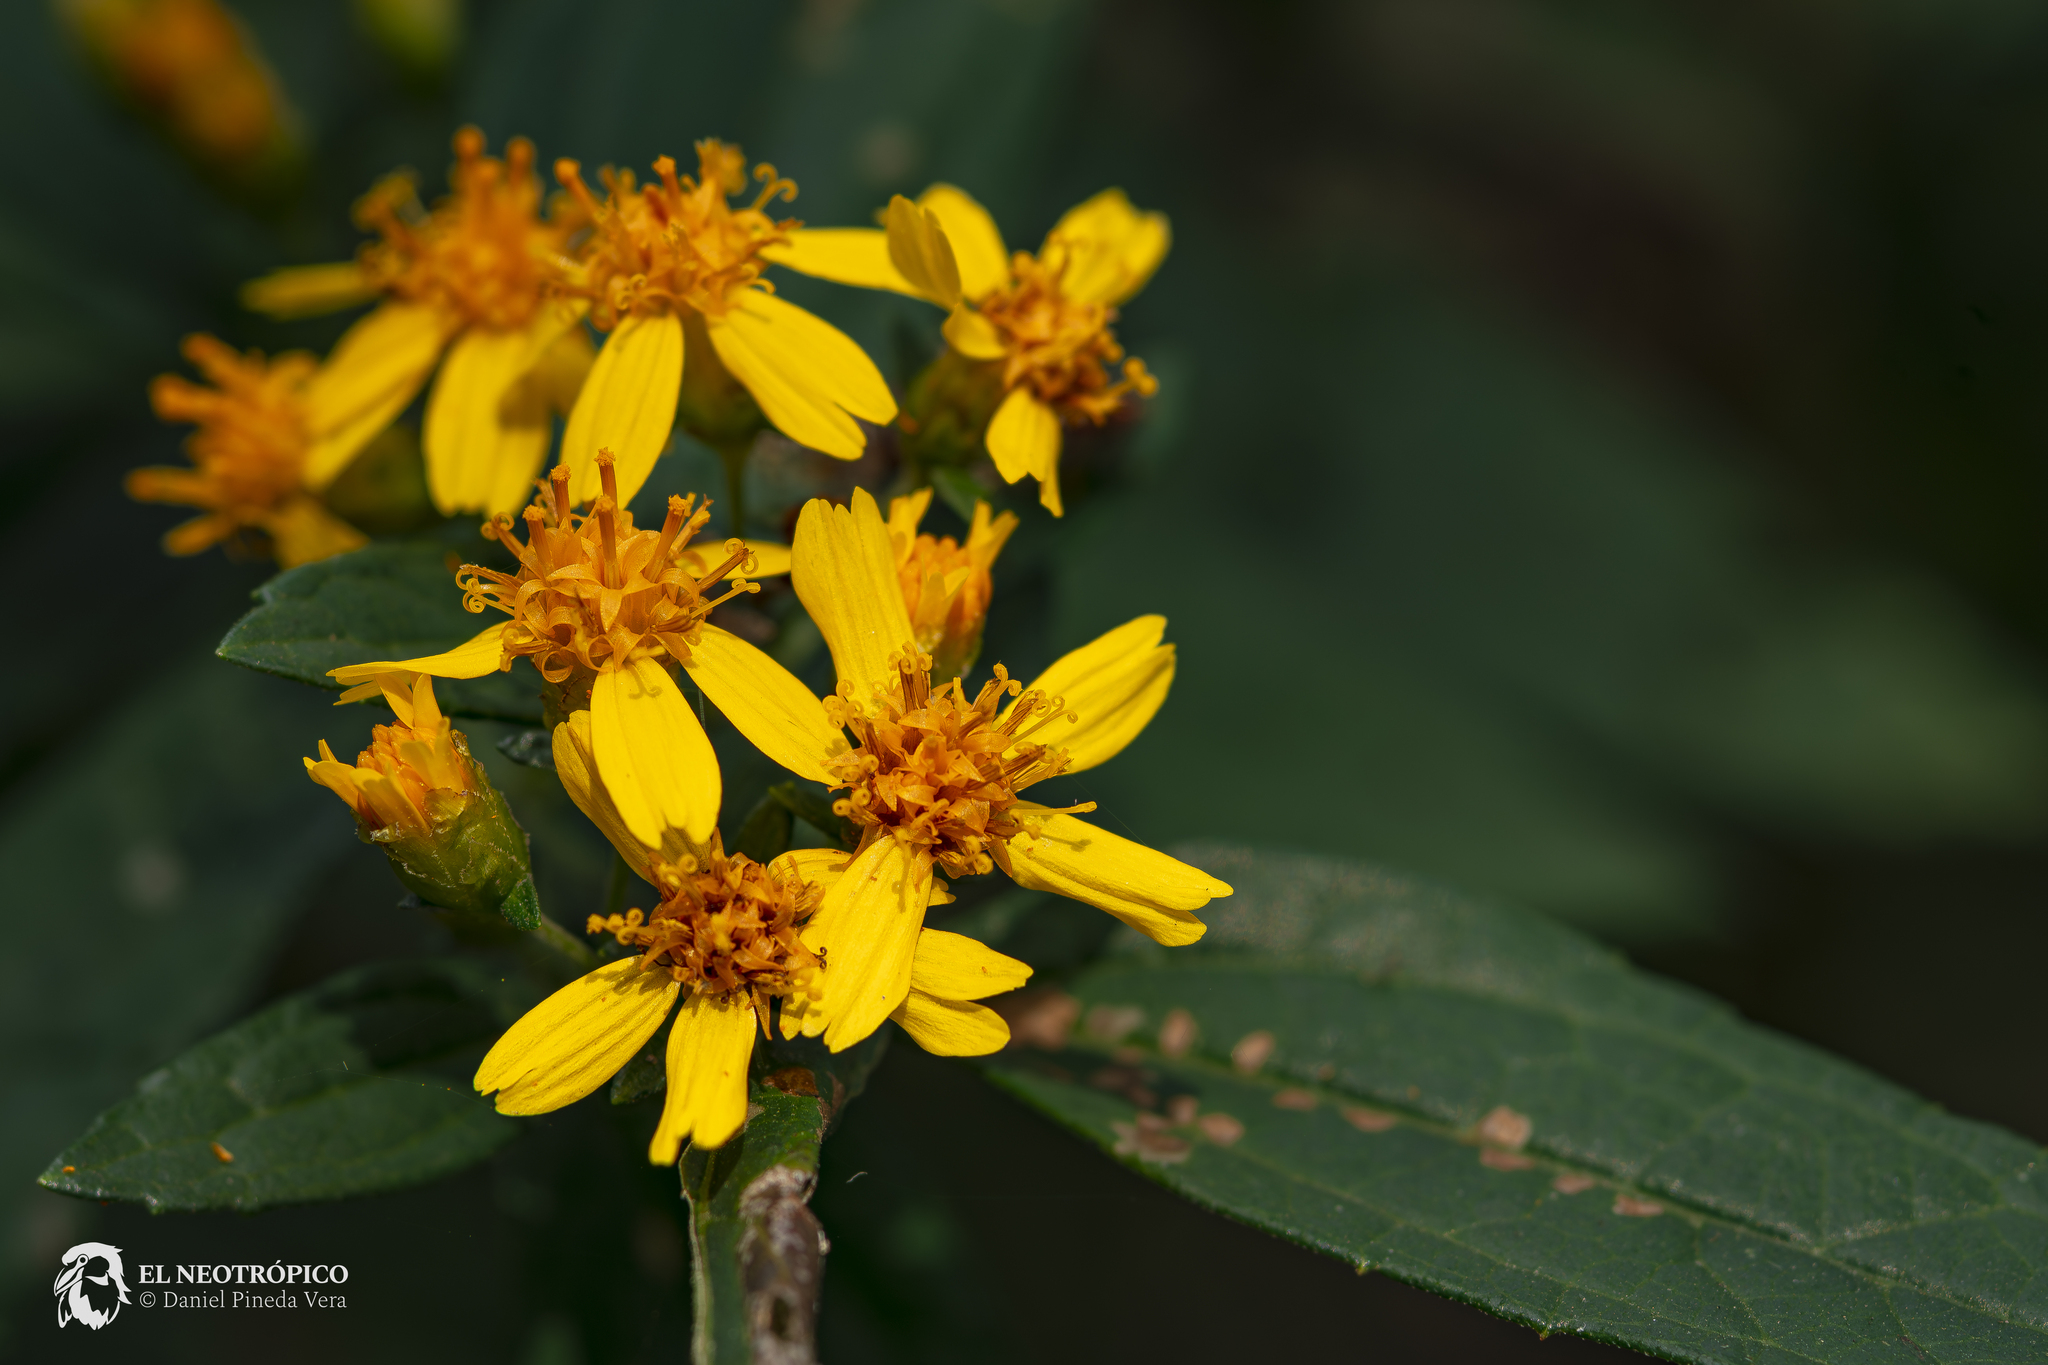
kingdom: Plantae
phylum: Tracheophyta
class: Magnoliopsida
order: Asterales
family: Asteraceae
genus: Calea
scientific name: Calea urticifolia
